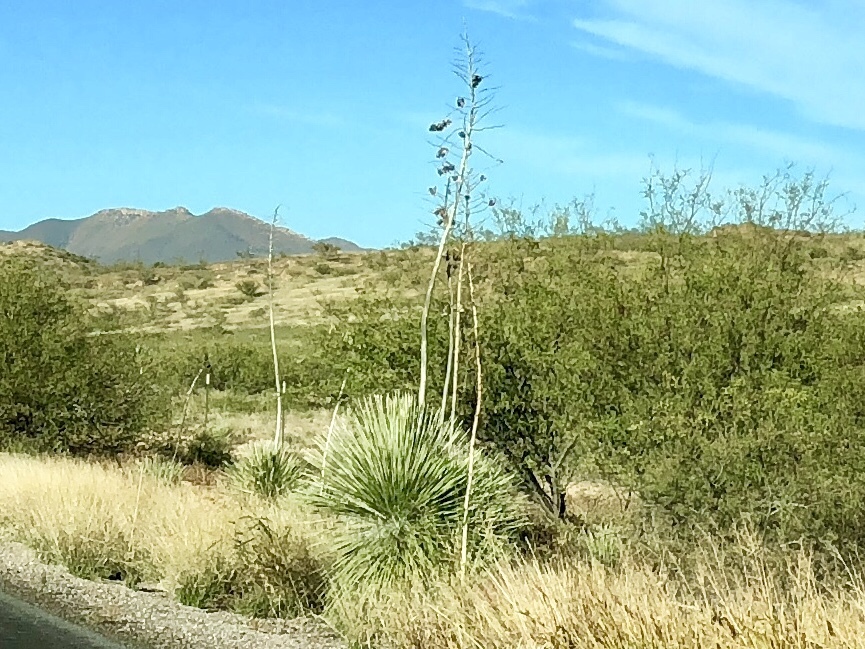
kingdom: Plantae
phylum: Tracheophyta
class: Liliopsida
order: Asparagales
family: Asparagaceae
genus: Yucca
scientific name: Yucca elata
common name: Palmella
